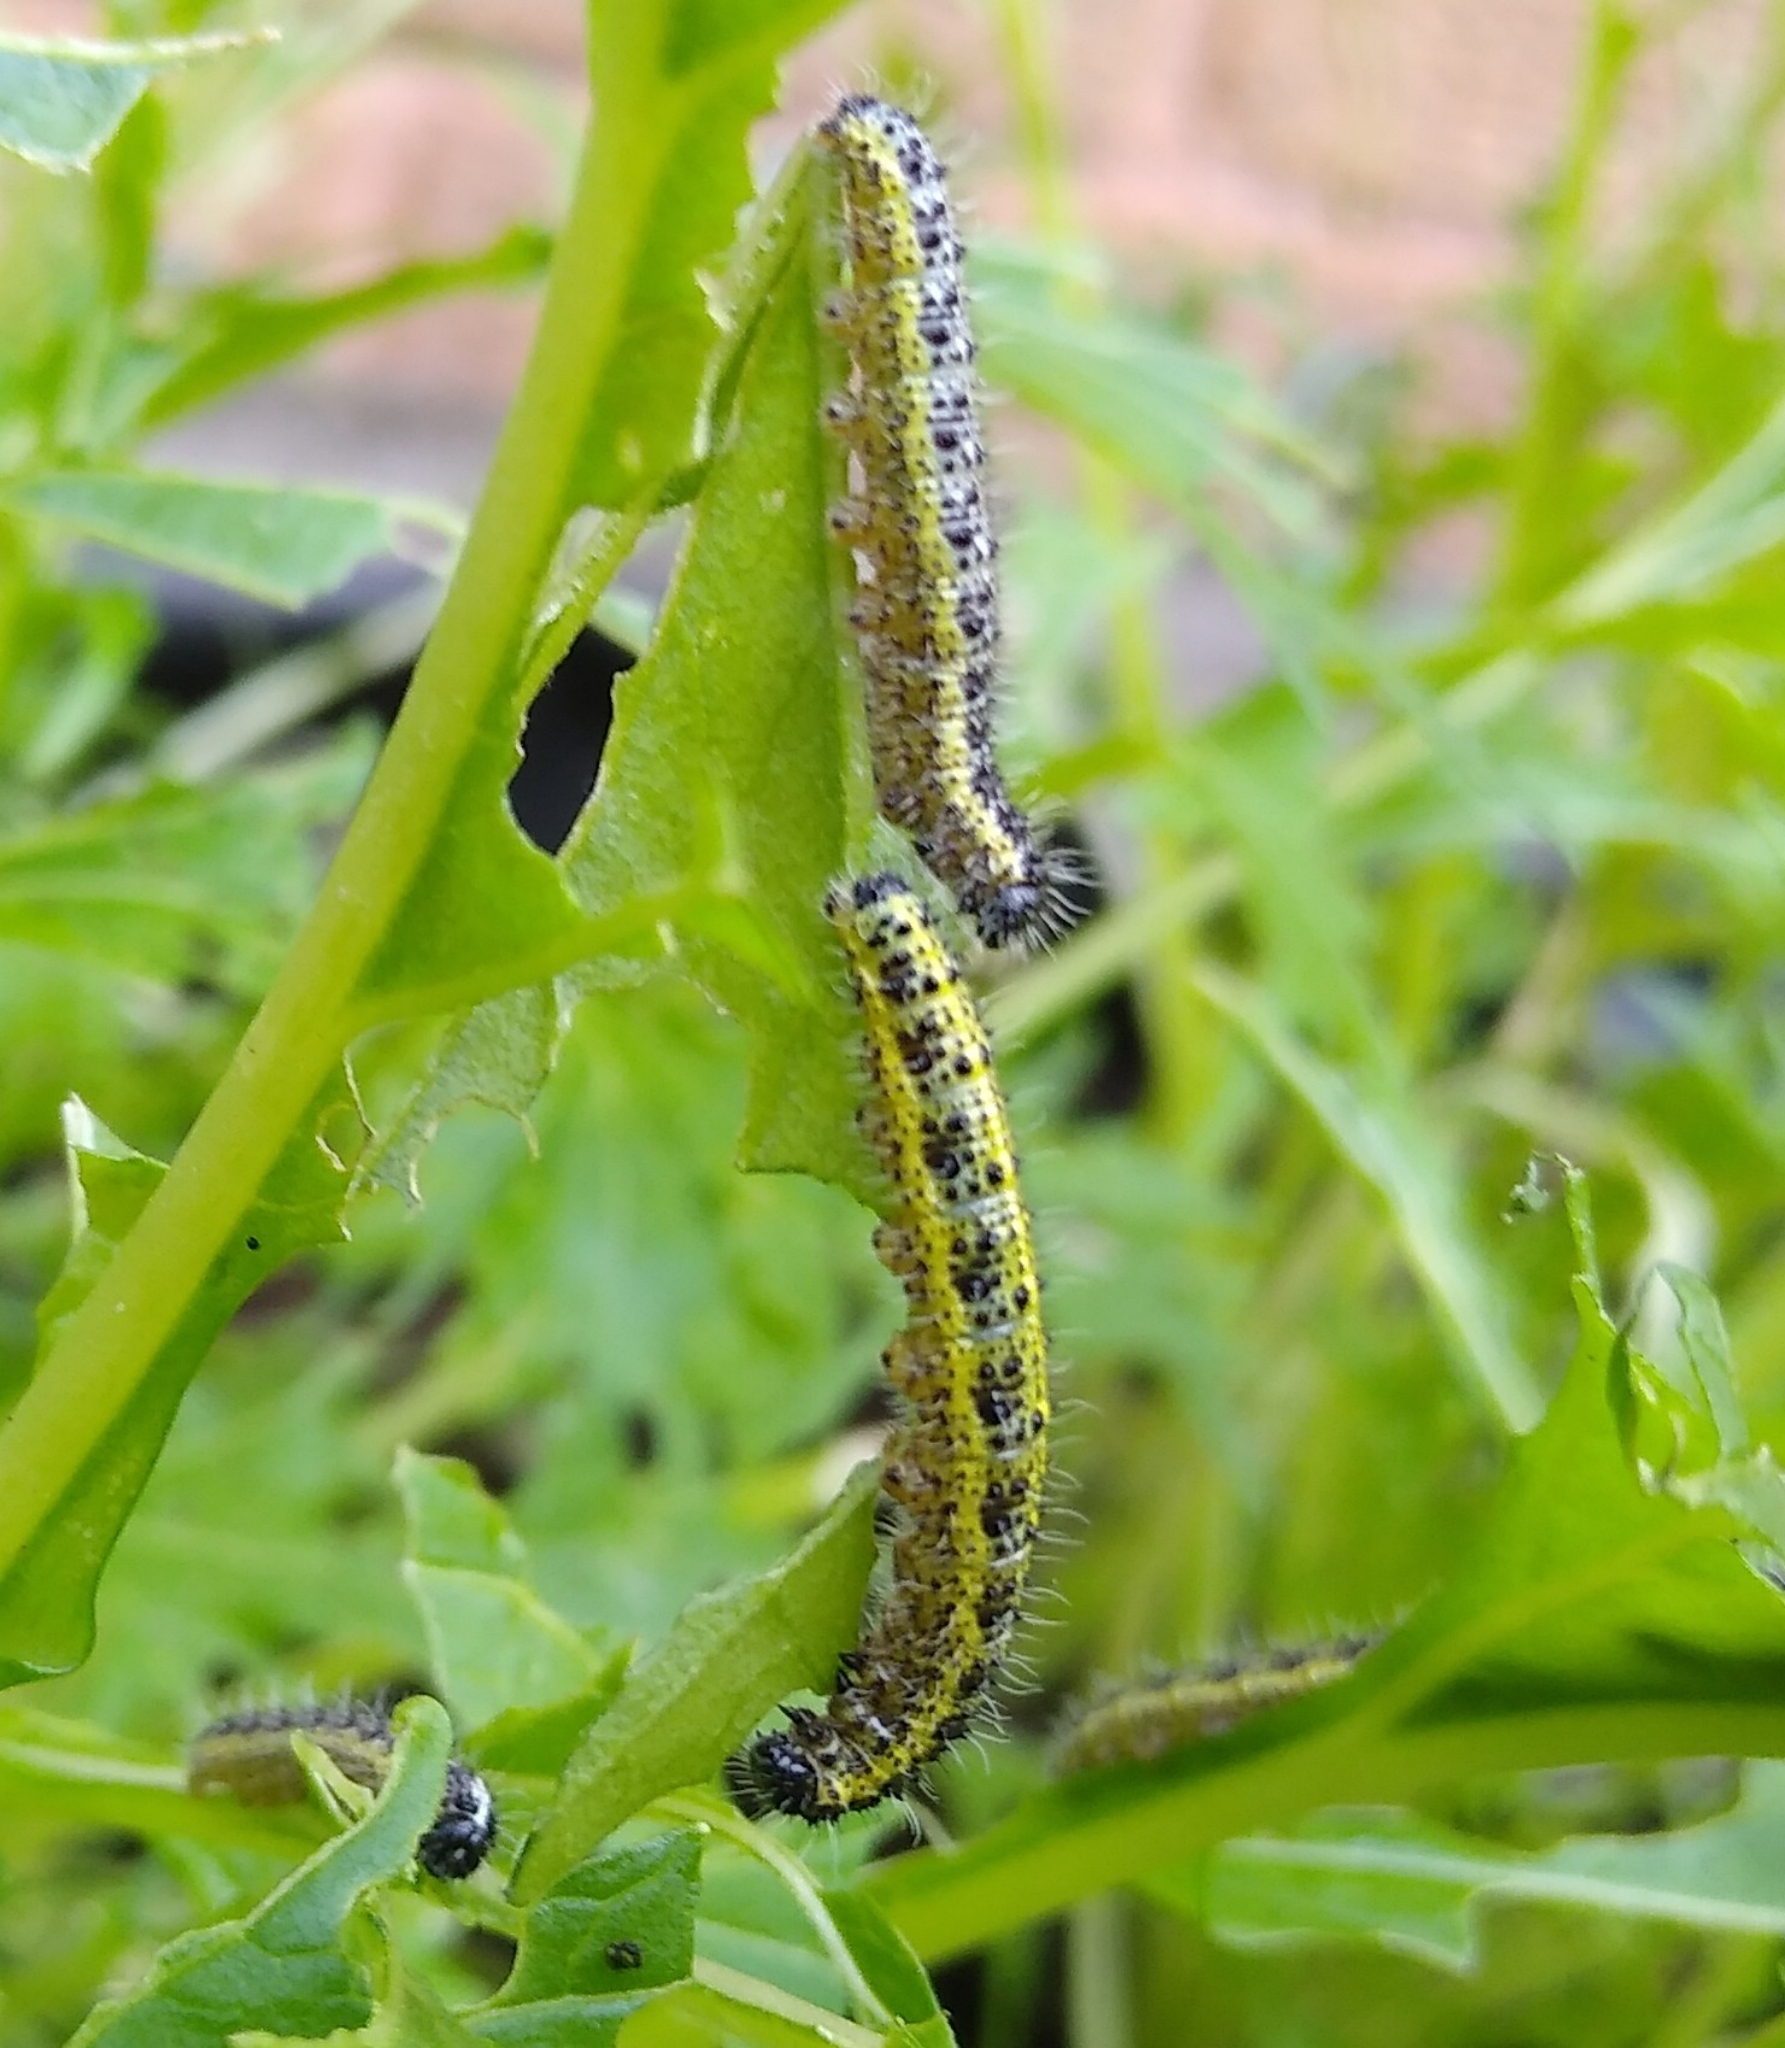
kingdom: Animalia
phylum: Arthropoda
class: Insecta
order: Lepidoptera
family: Pieridae
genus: Pieris
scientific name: Pieris brassicae
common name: Large white
